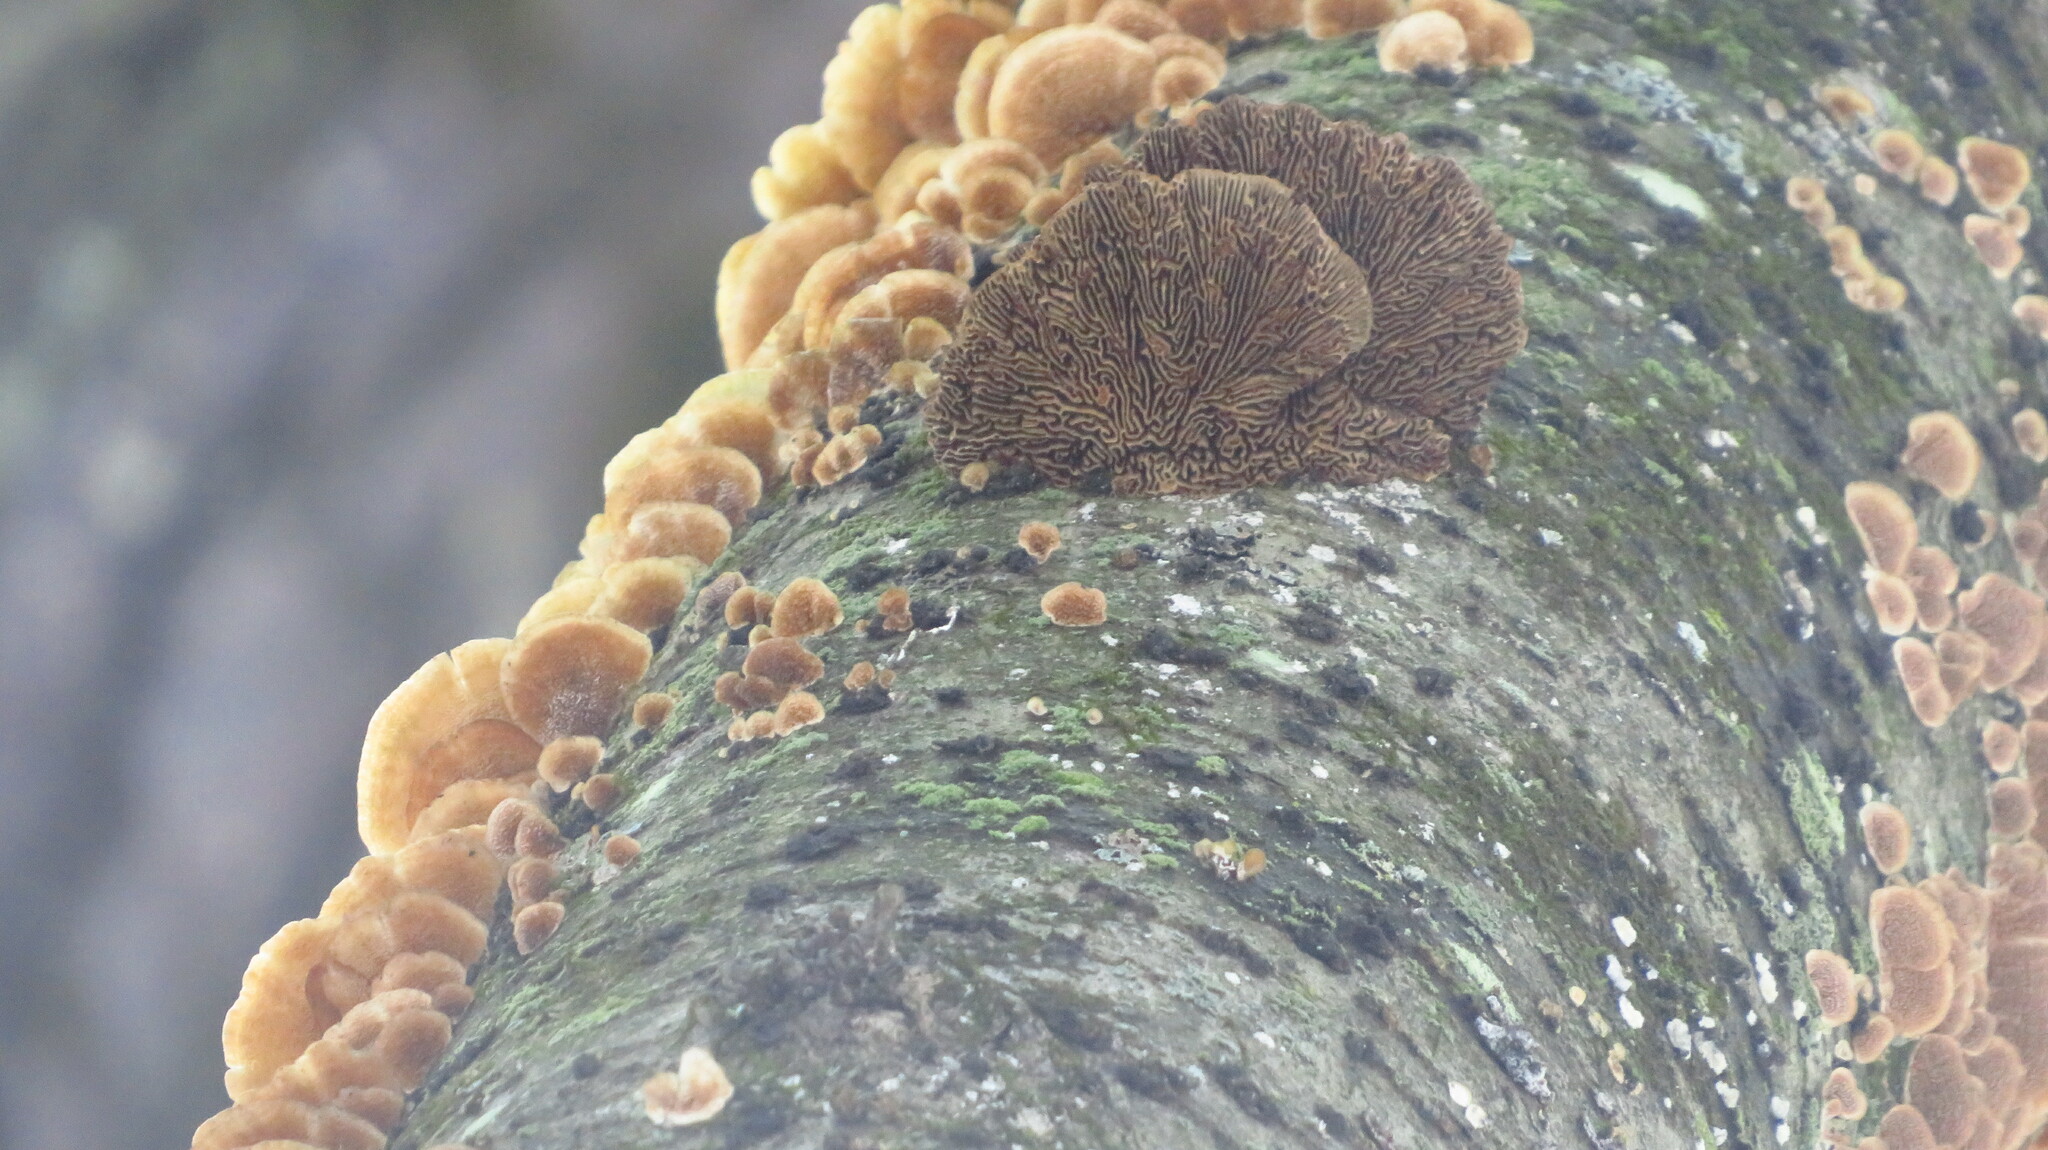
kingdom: Fungi
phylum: Basidiomycota
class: Agaricomycetes
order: Polyporales
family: Polyporaceae
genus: Daedaleopsis
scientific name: Daedaleopsis confragosa
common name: Blushing bracket
